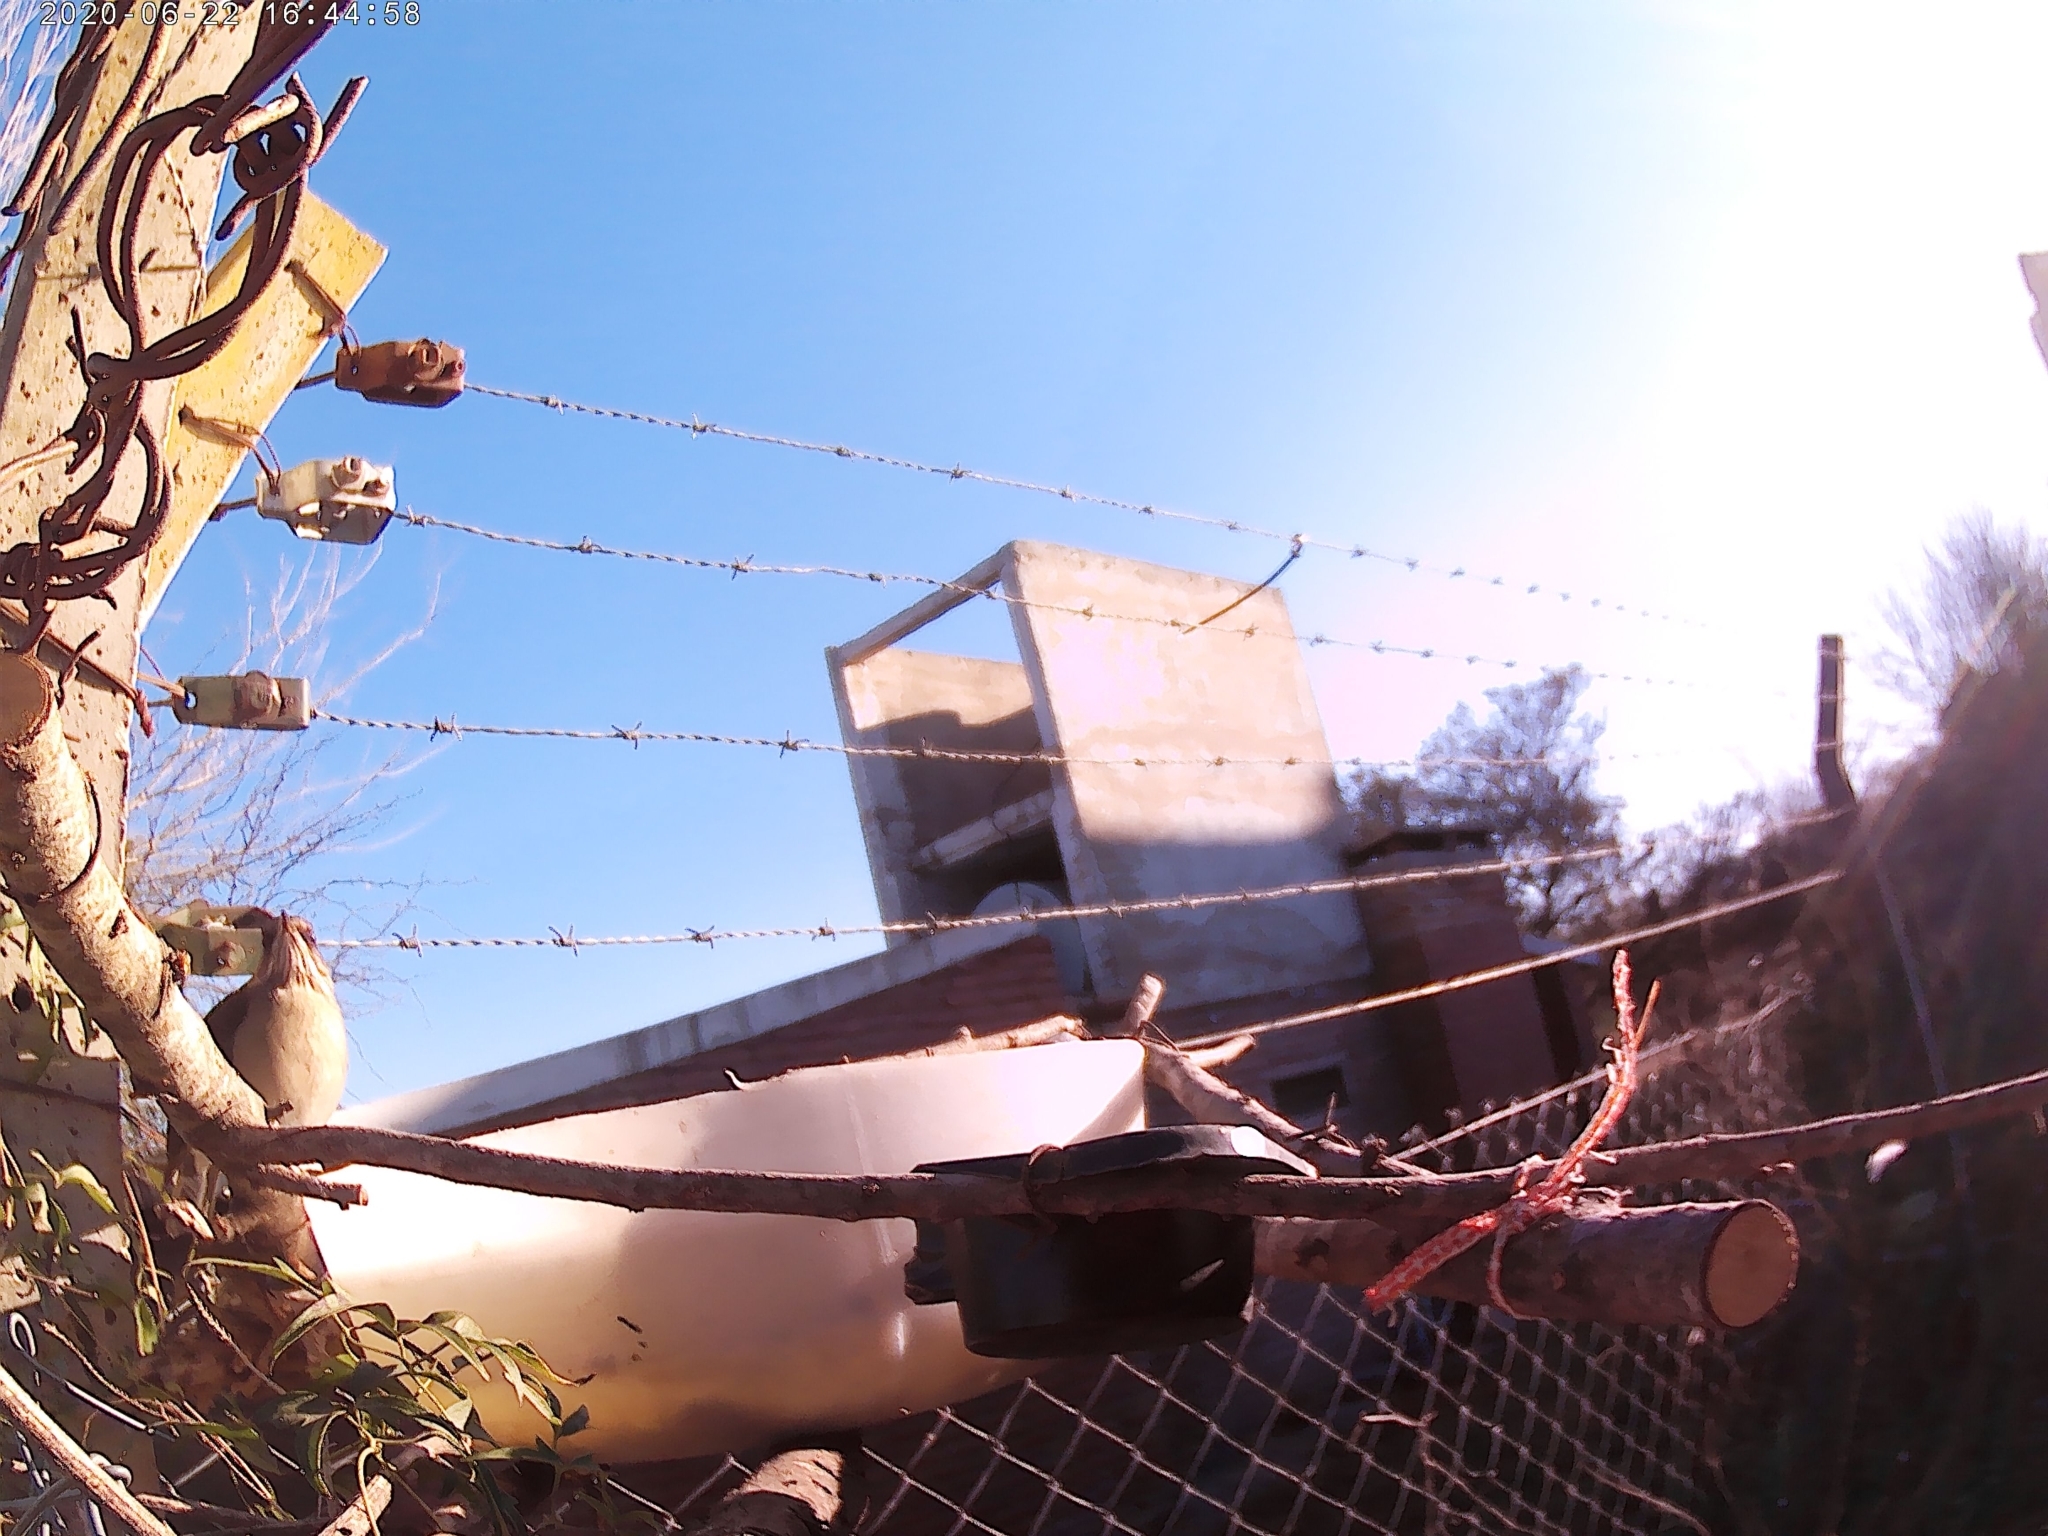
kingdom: Animalia
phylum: Chordata
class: Aves
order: Passeriformes
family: Turdidae
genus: Turdus
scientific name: Turdus amaurochalinus
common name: Creamy-bellied thrush
